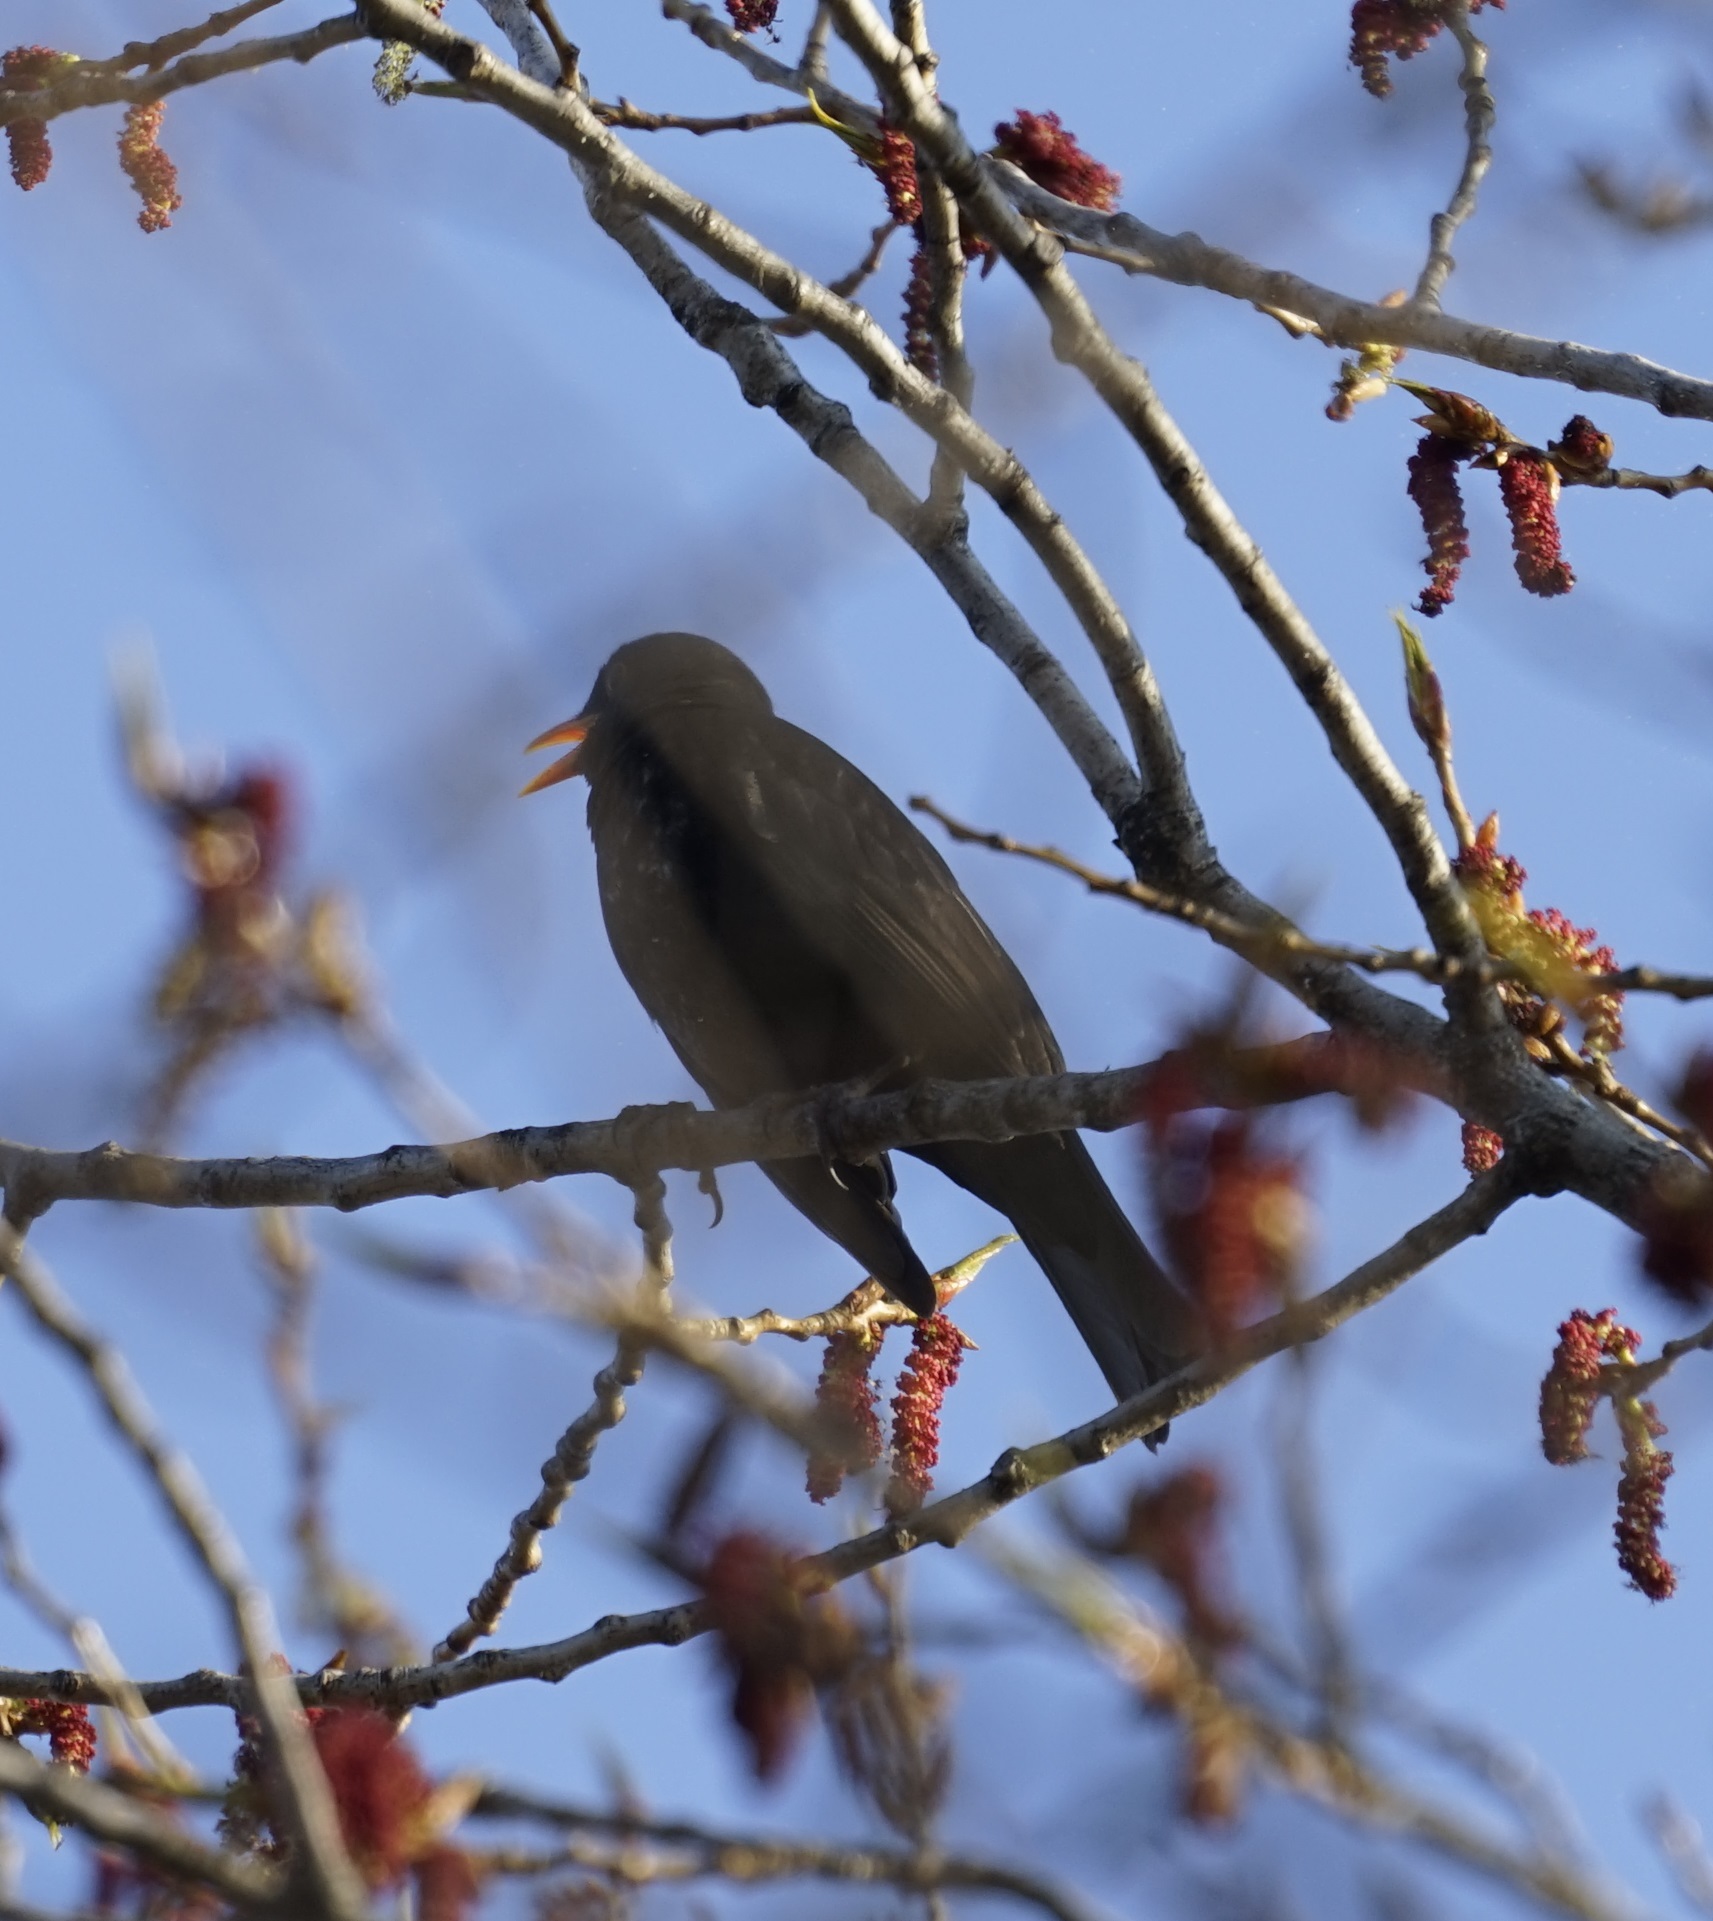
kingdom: Animalia
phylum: Chordata
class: Aves
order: Passeriformes
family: Turdidae
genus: Turdus
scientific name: Turdus merula
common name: Common blackbird
